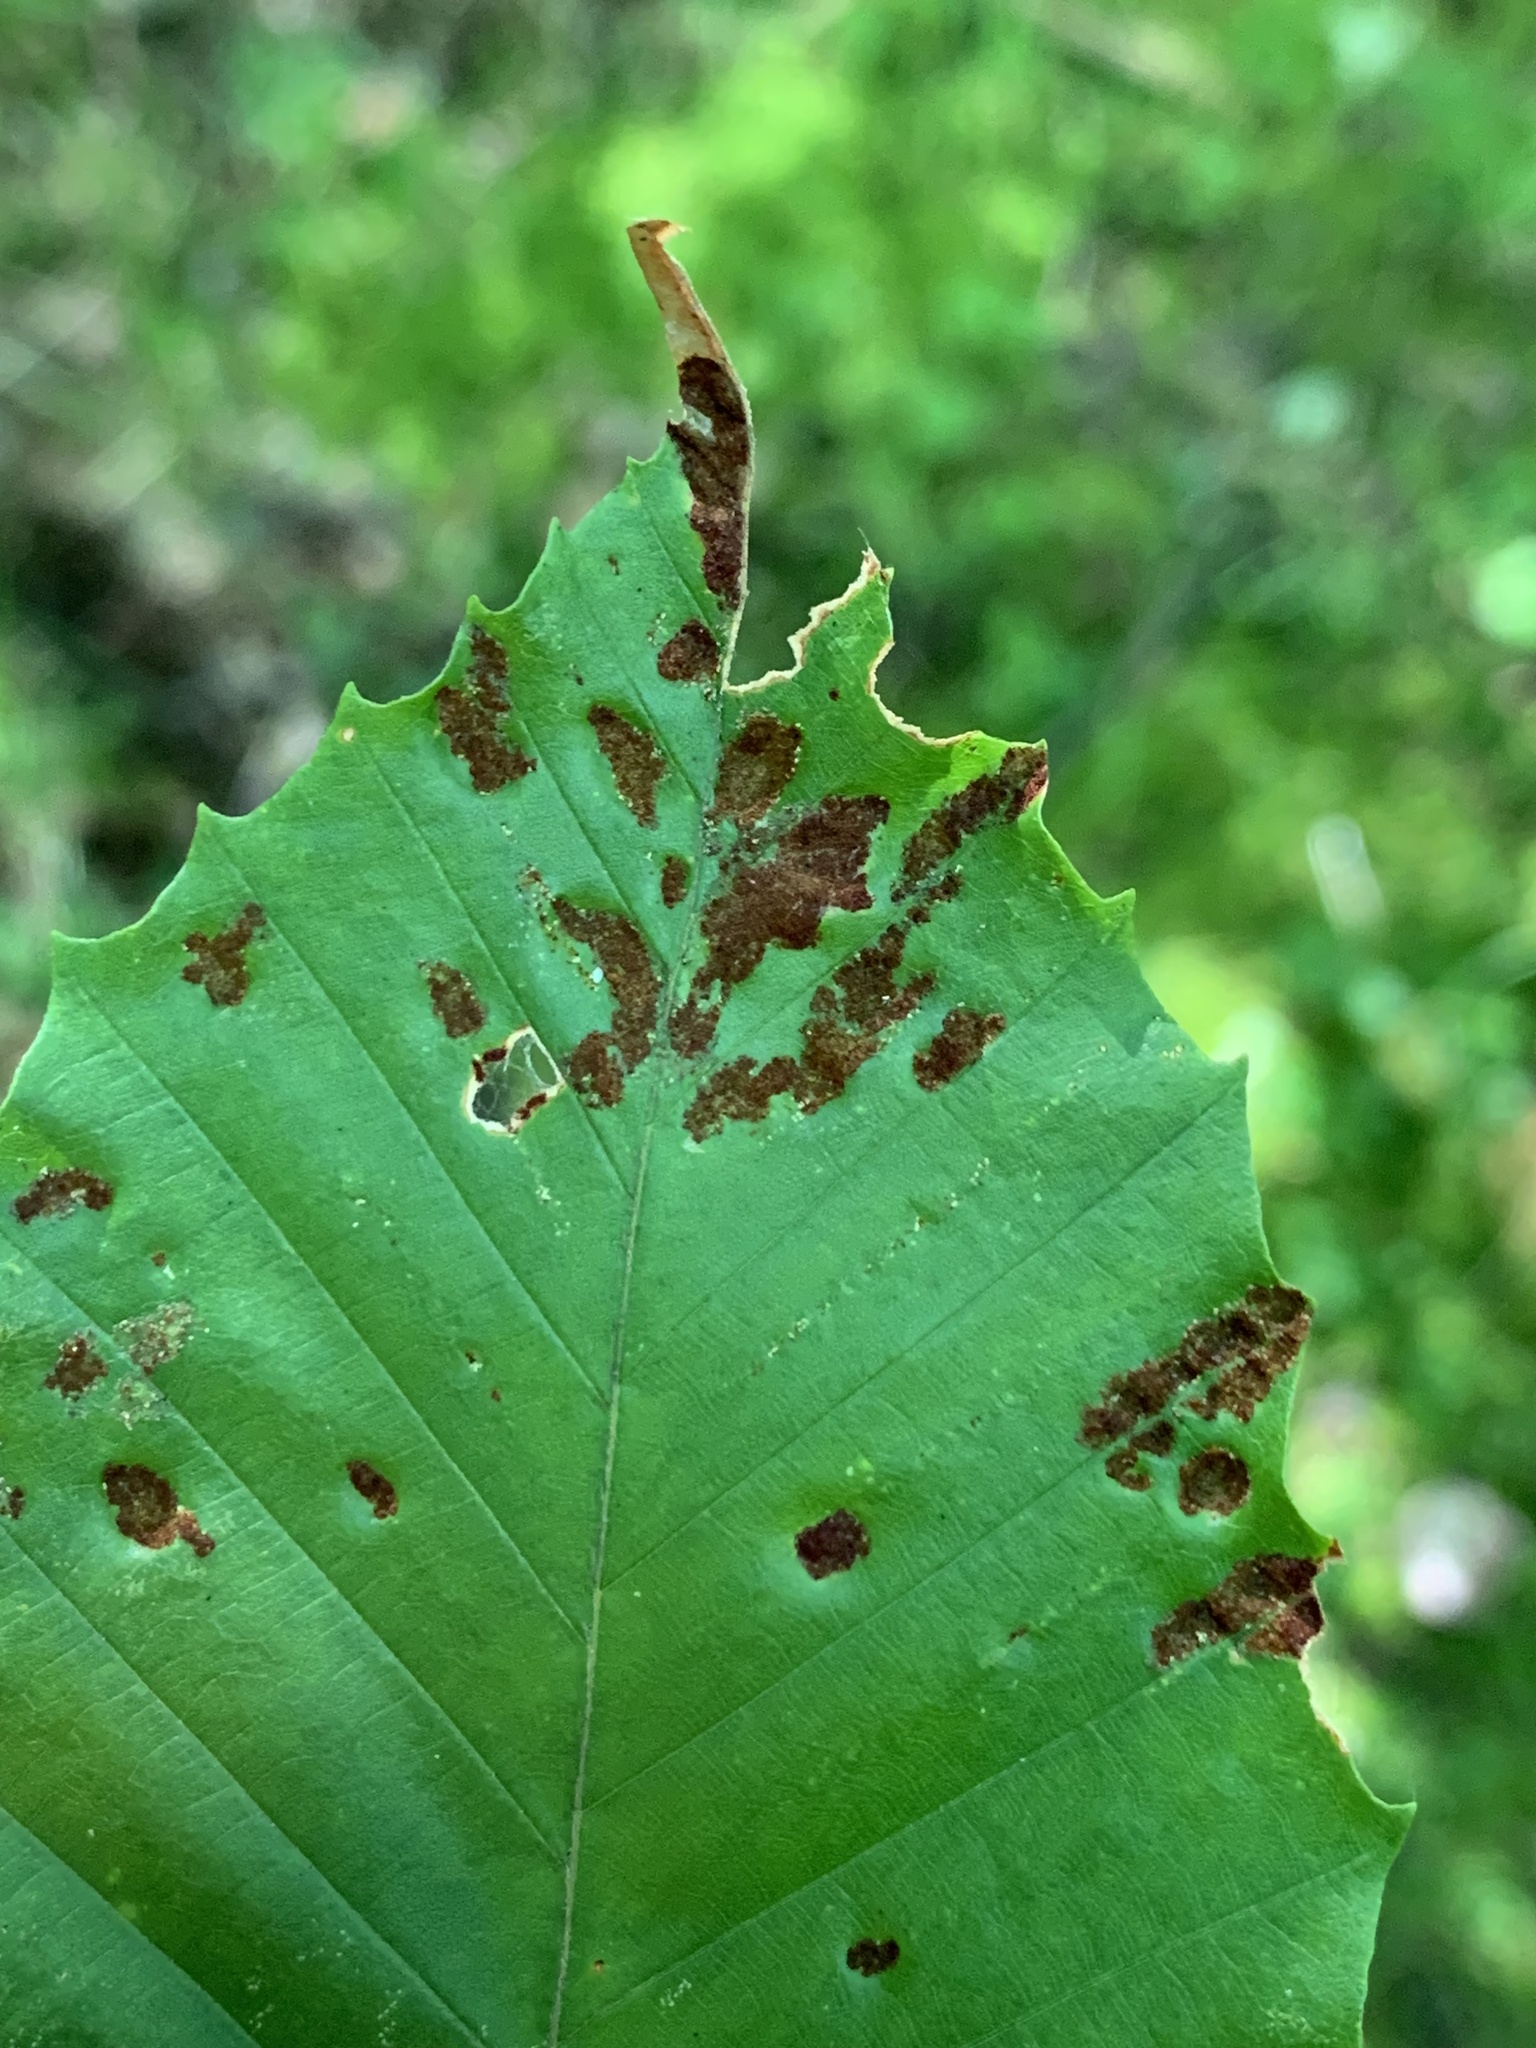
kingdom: Animalia
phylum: Arthropoda
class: Arachnida
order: Trombidiformes
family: Eriophyidae
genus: Acalitus
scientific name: Acalitus
